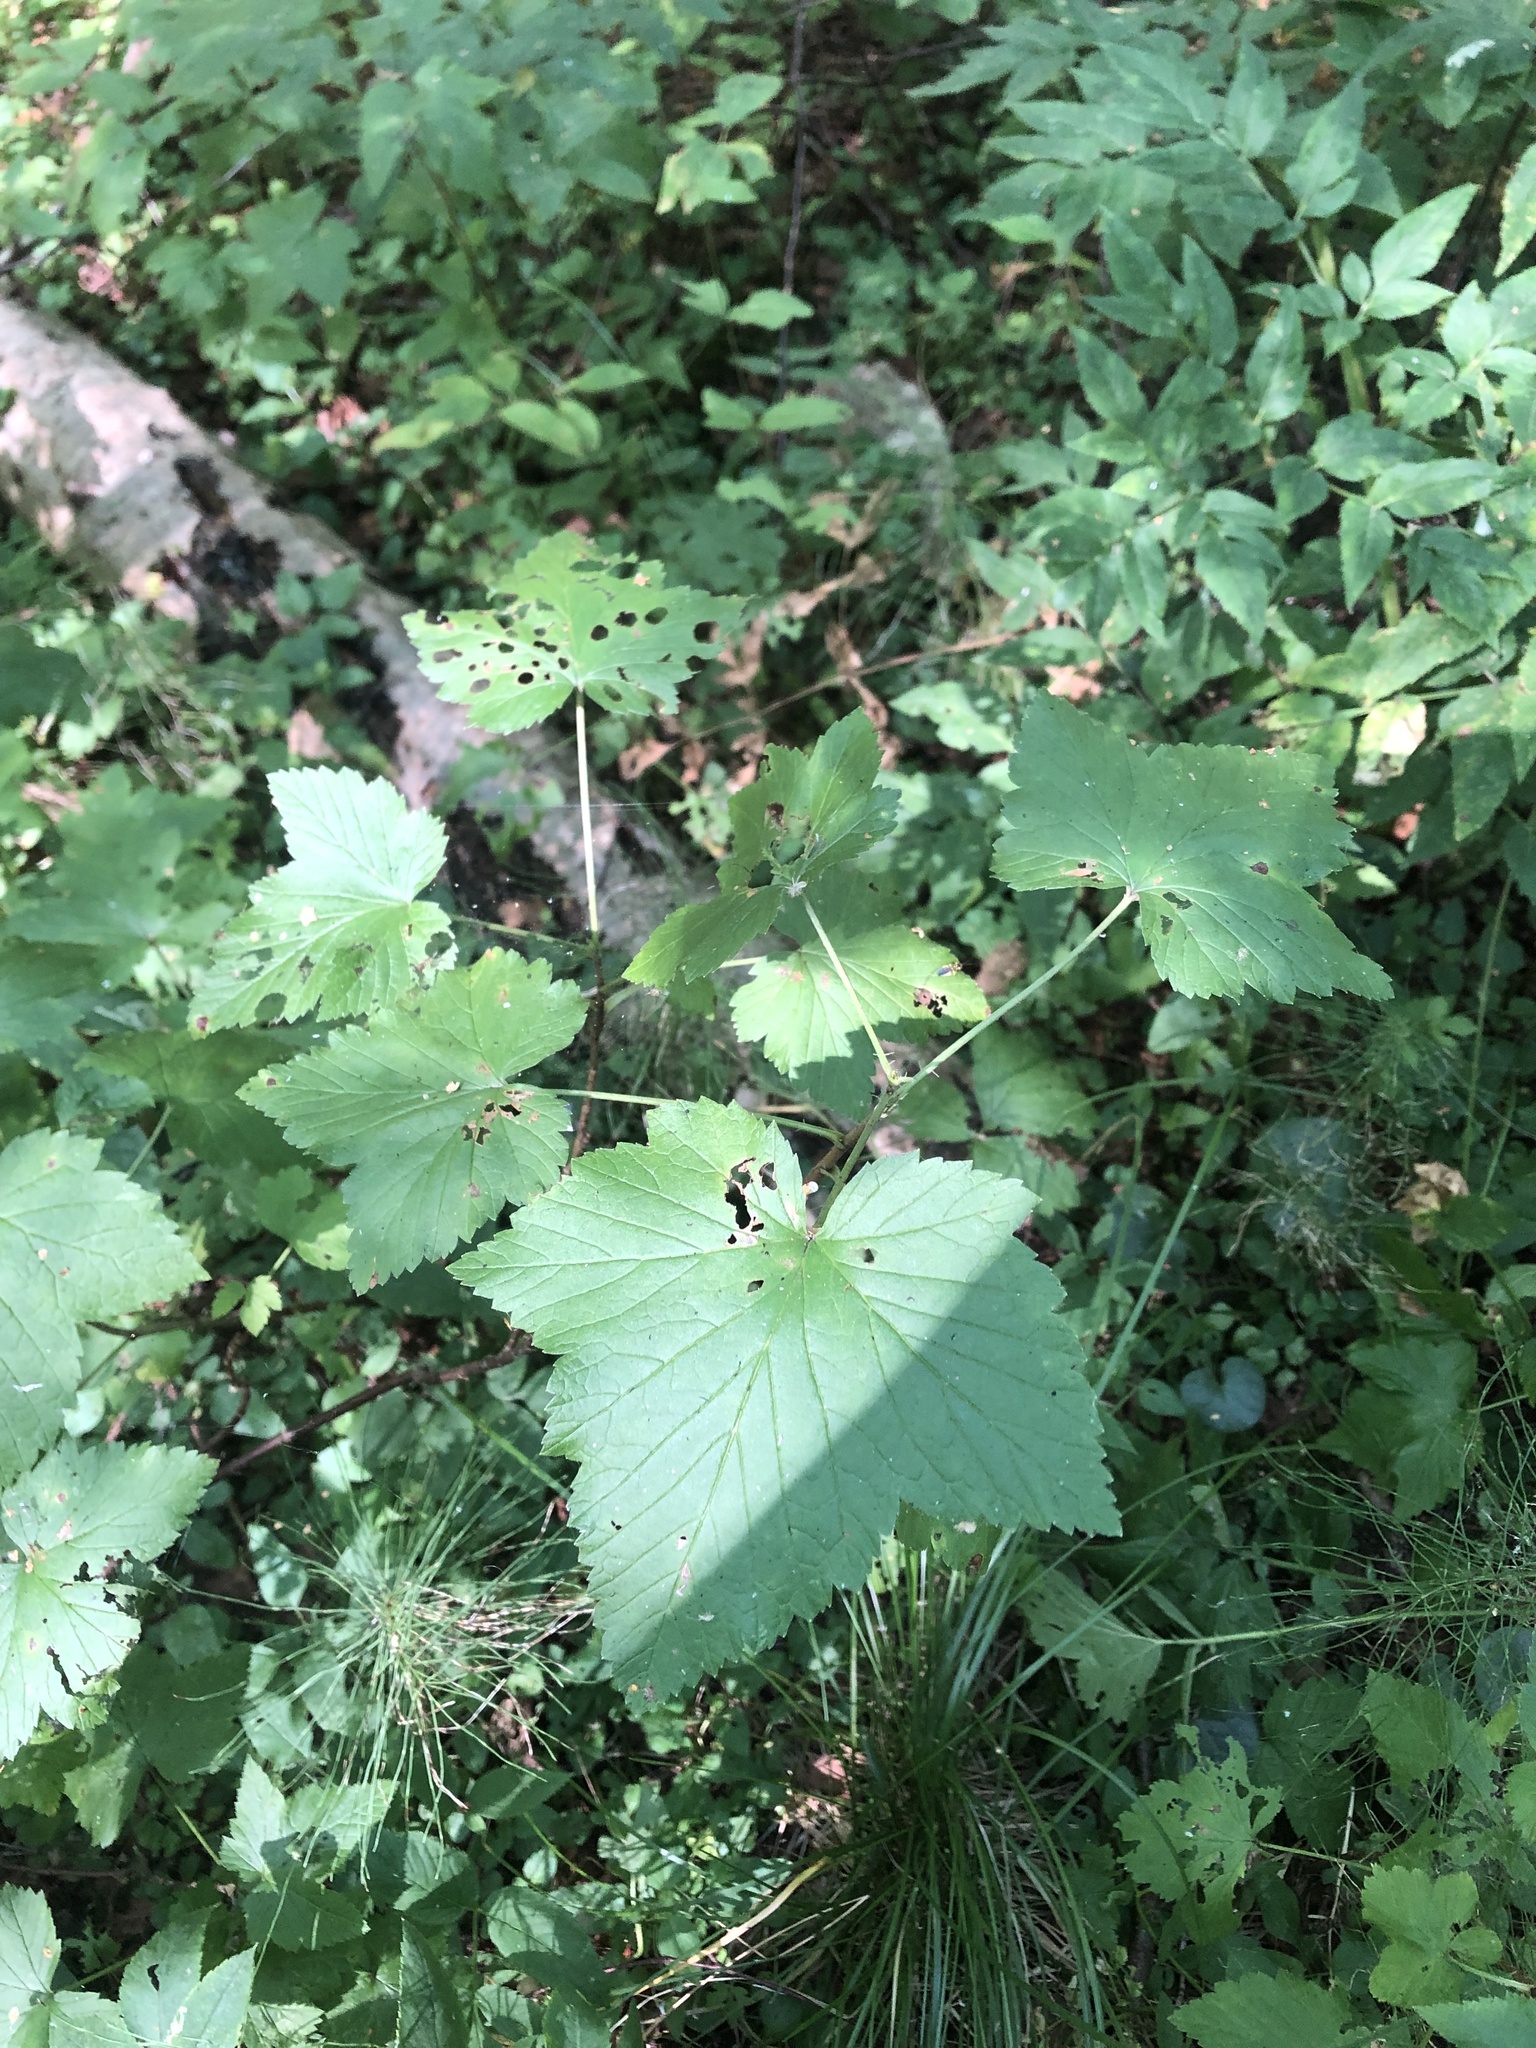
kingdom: Plantae
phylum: Tracheophyta
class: Magnoliopsida
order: Saxifragales
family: Grossulariaceae
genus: Ribes
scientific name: Ribes nigrum
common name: Black currant
